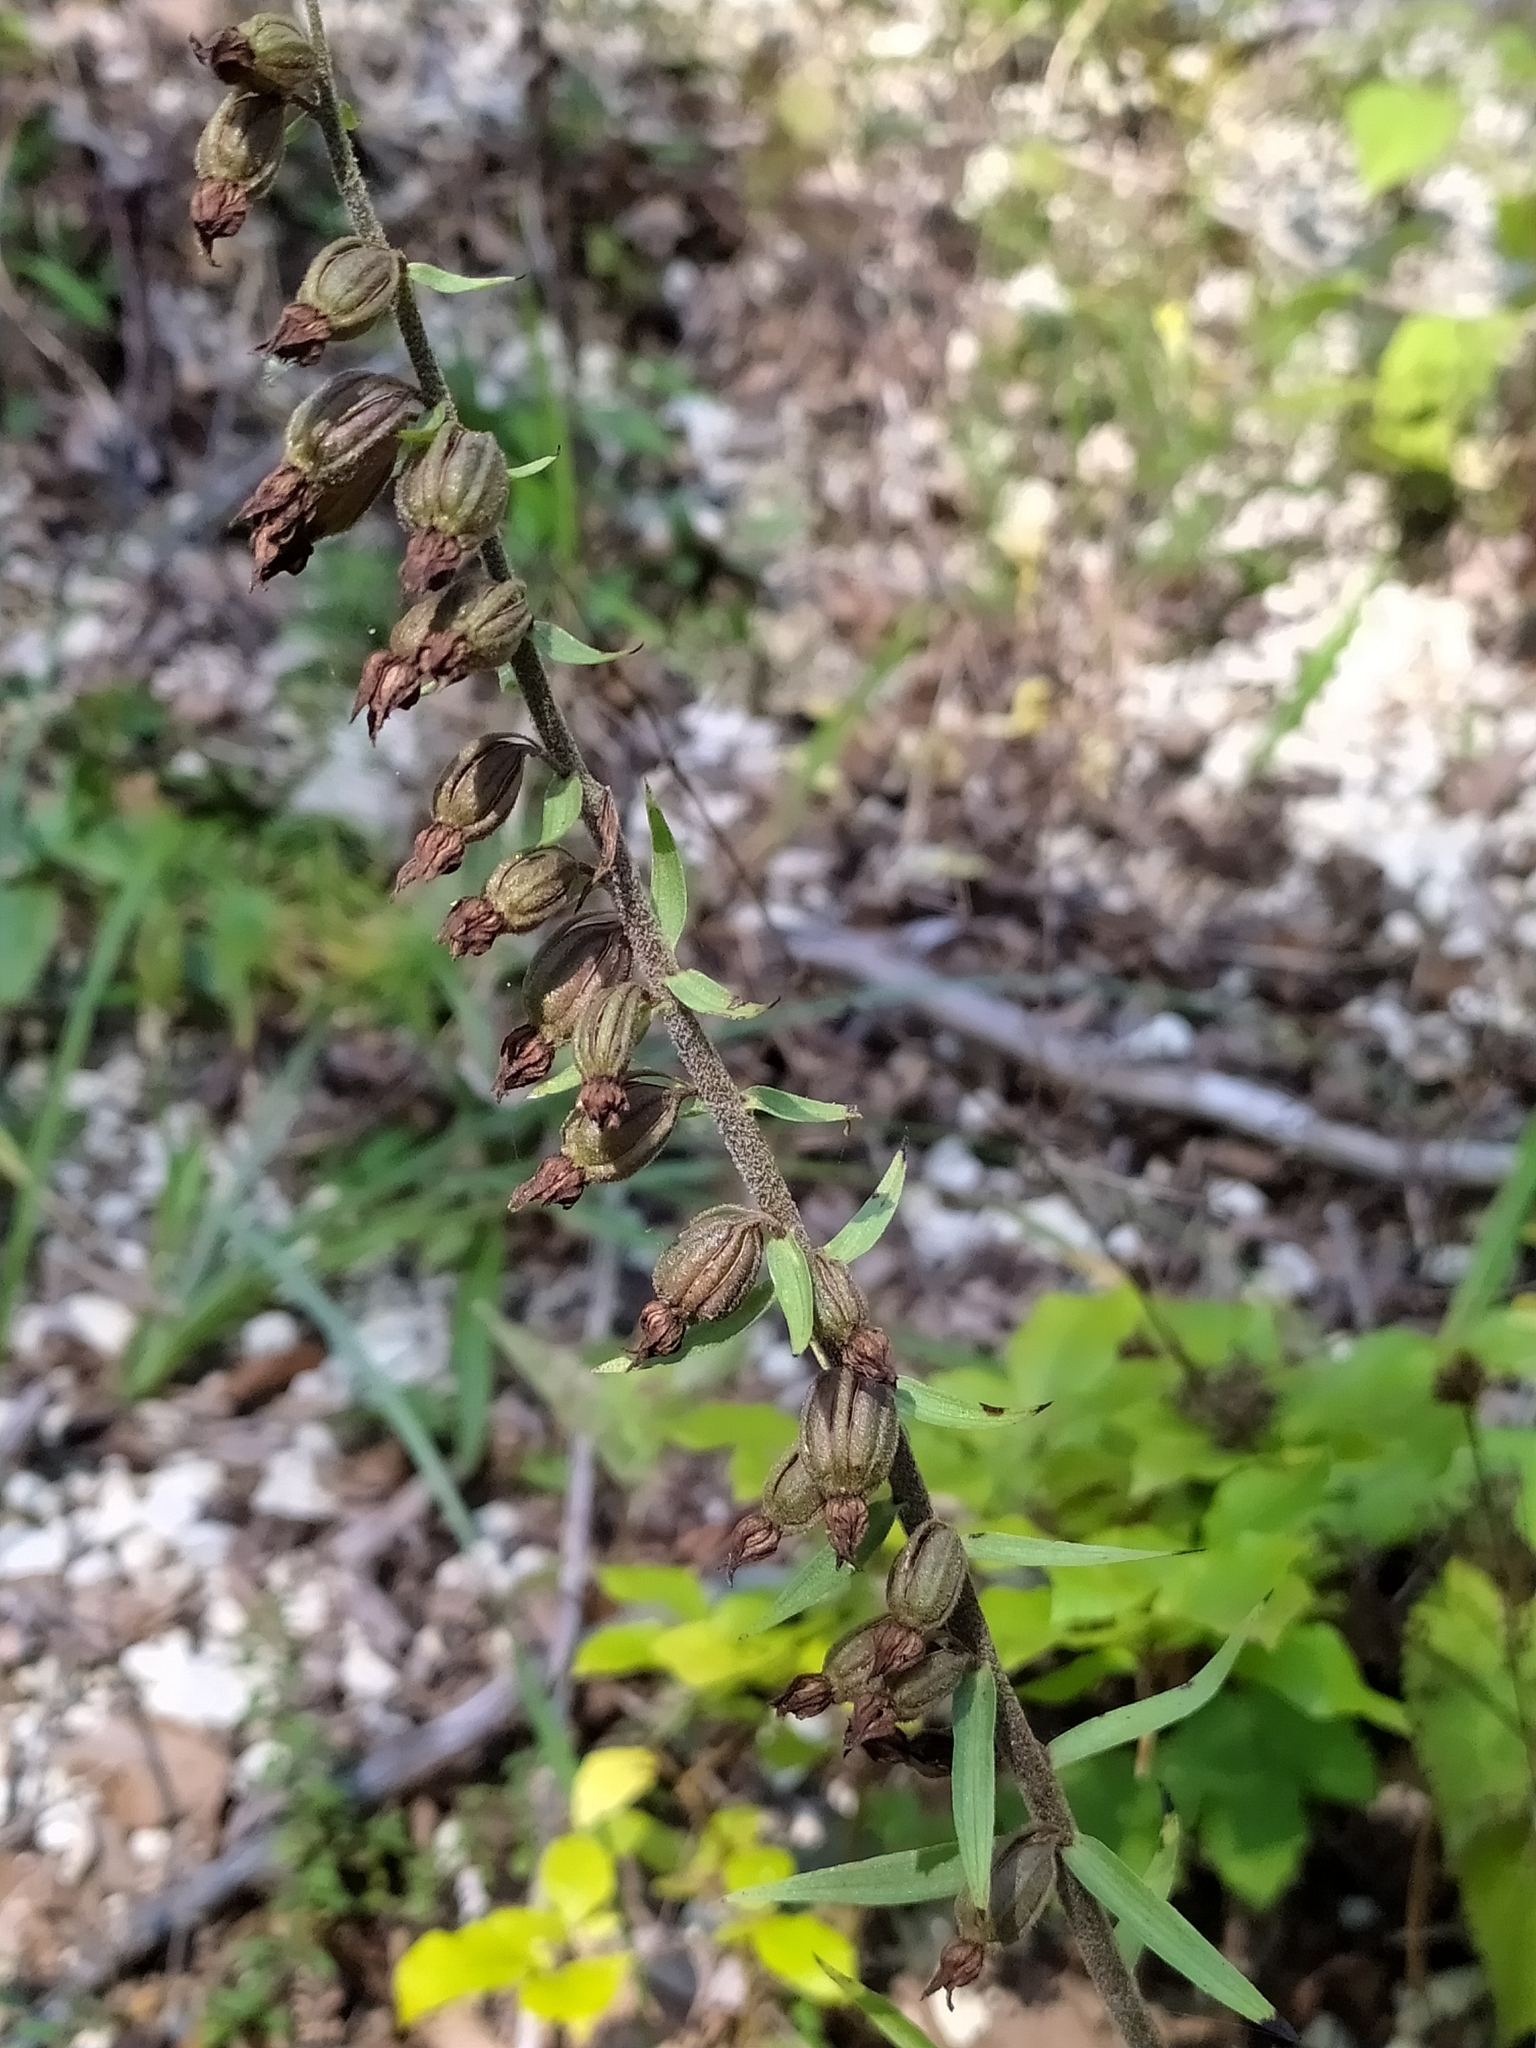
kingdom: Plantae
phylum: Tracheophyta
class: Liliopsida
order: Asparagales
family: Orchidaceae
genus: Epipactis
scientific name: Epipactis atrorubens
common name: Dark-red helleborine
